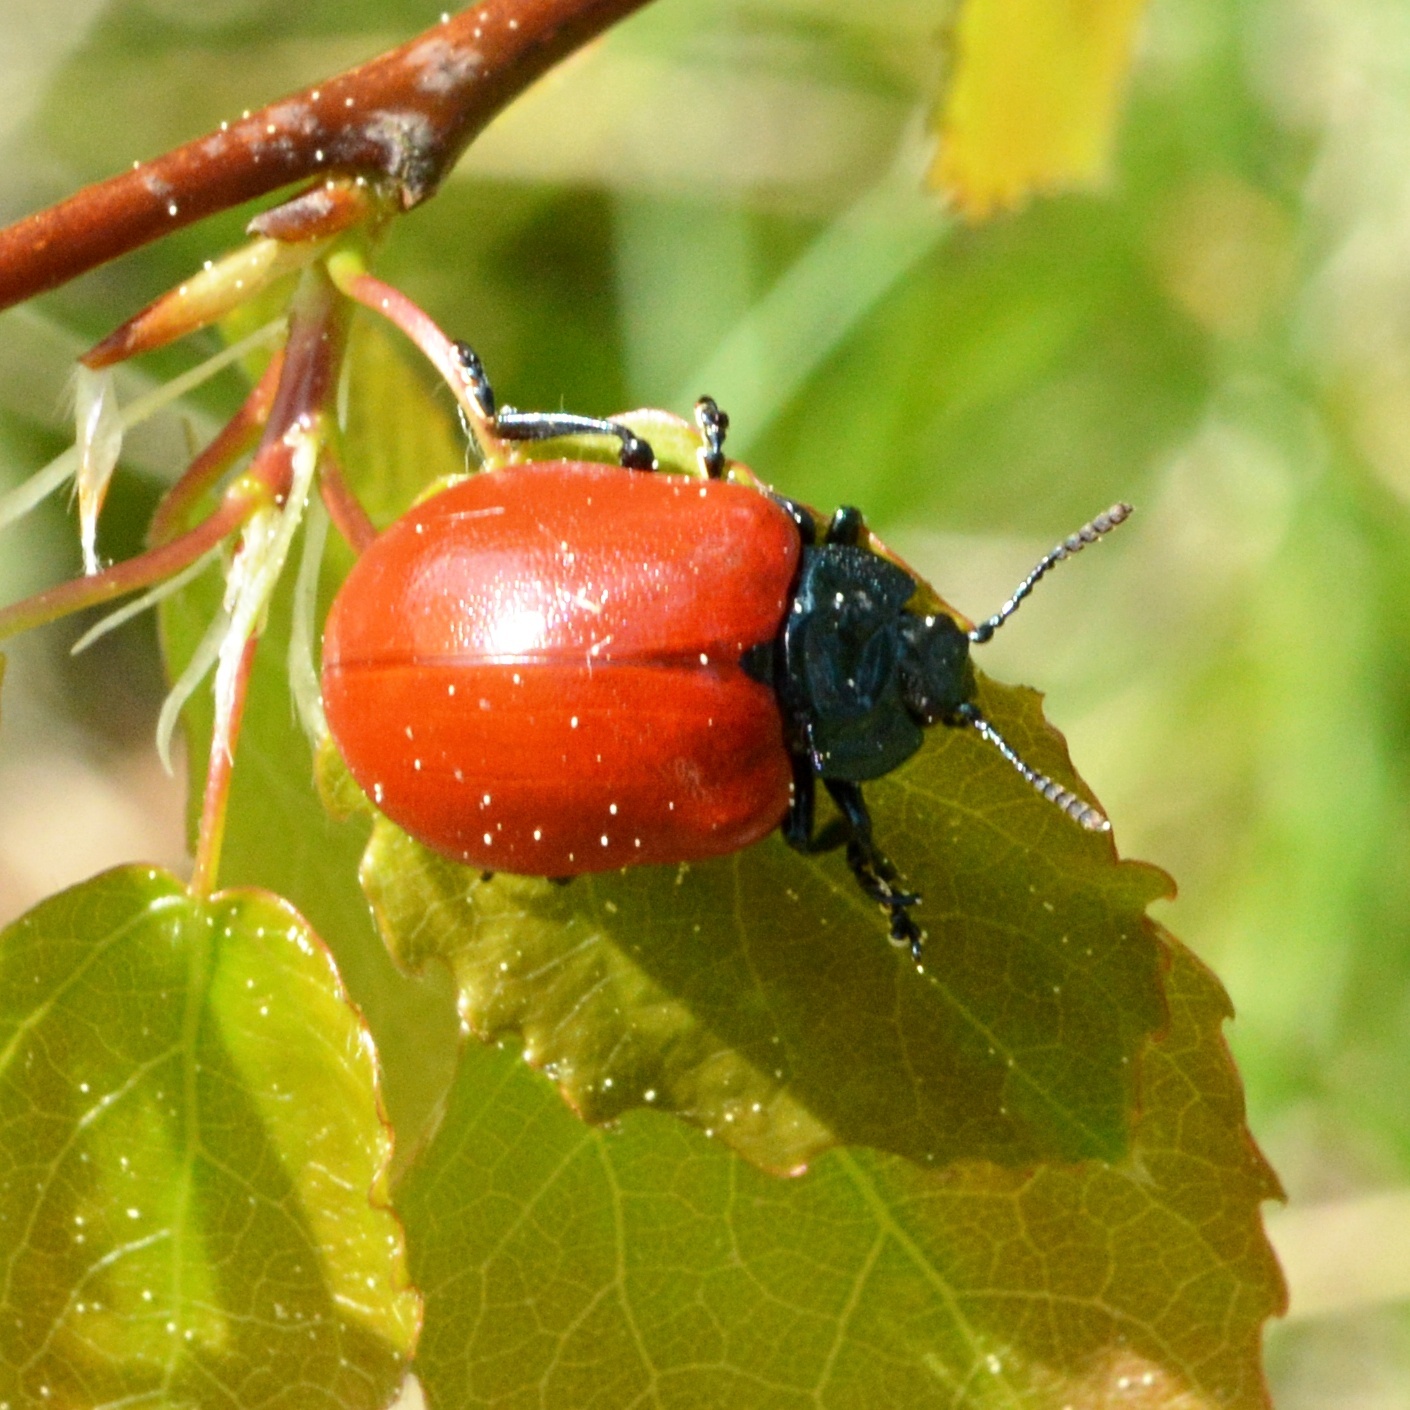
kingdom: Animalia
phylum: Arthropoda
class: Insecta
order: Coleoptera
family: Chrysomelidae
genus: Chrysomela
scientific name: Chrysomela populi
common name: Red poplar leaf beetle
